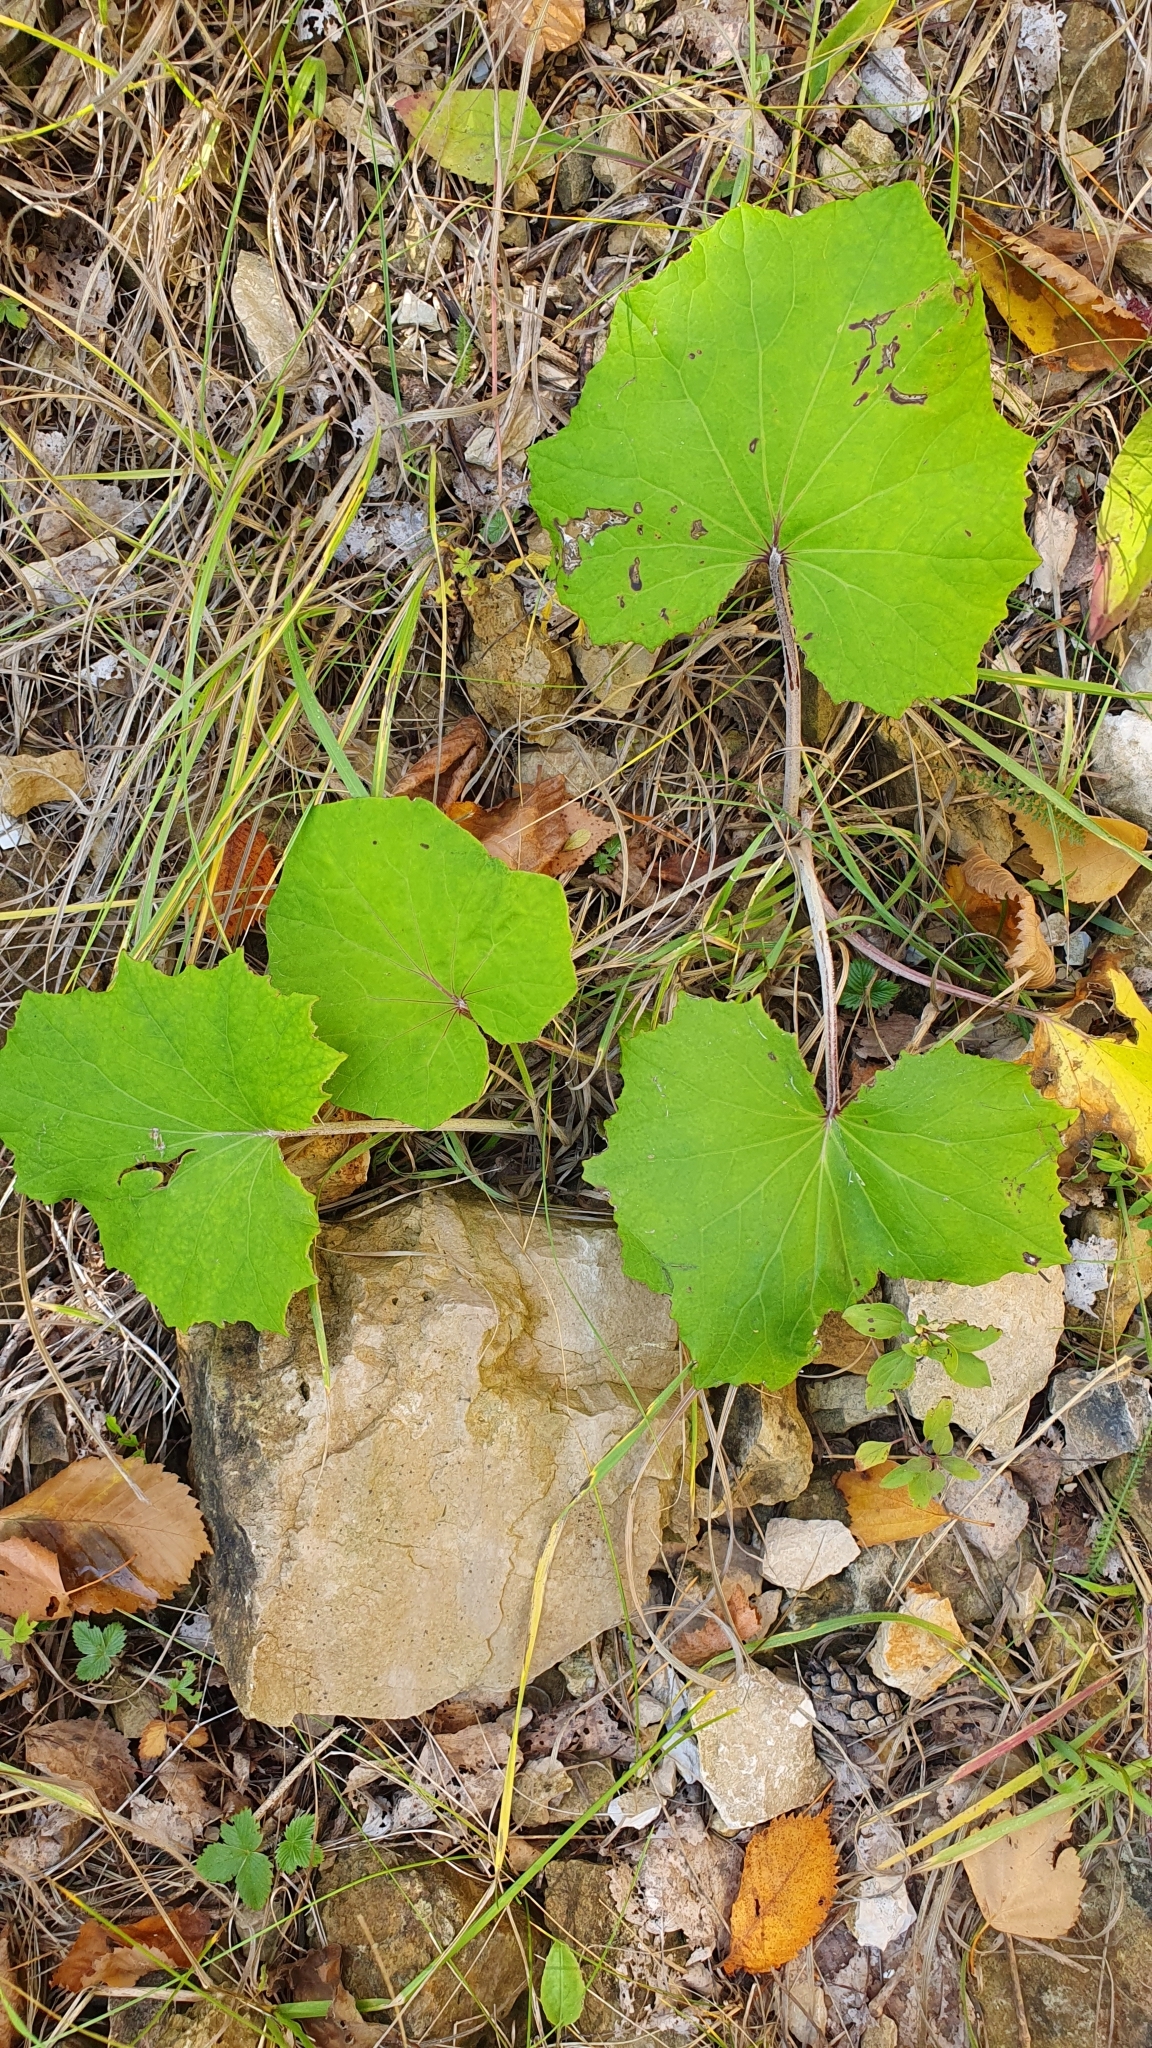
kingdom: Plantae
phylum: Tracheophyta
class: Magnoliopsida
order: Asterales
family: Asteraceae
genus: Tussilago
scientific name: Tussilago farfara
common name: Coltsfoot
